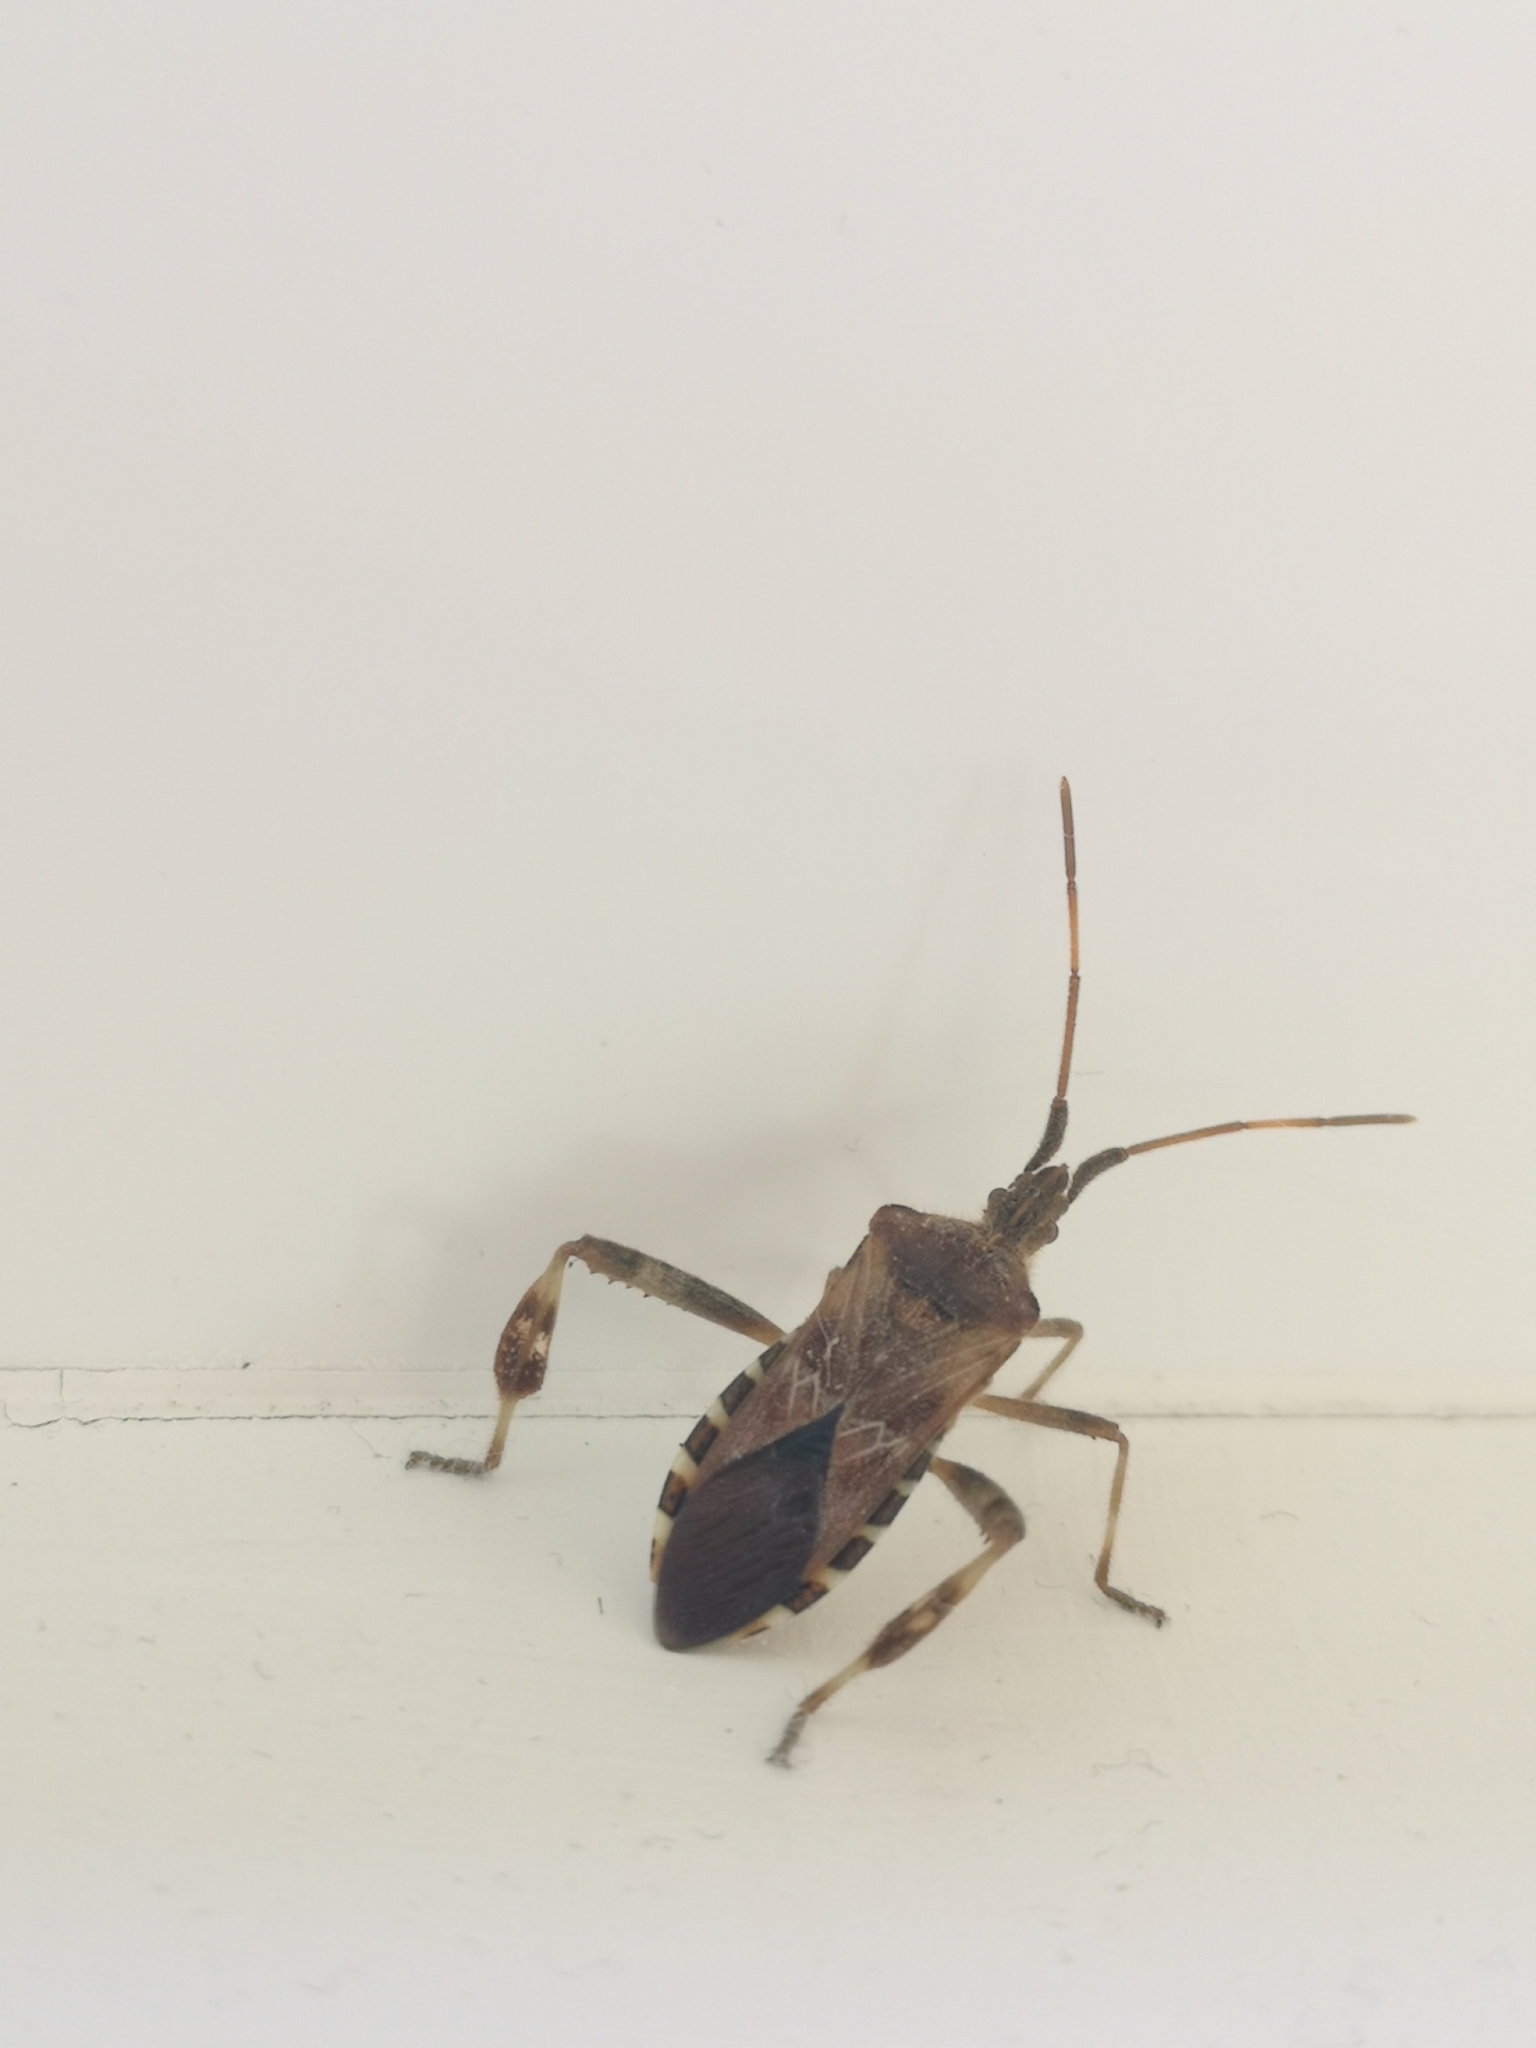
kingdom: Animalia
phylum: Arthropoda
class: Insecta
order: Hemiptera
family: Coreidae
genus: Leptoglossus
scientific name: Leptoglossus occidentalis
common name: Western conifer-seed bug
